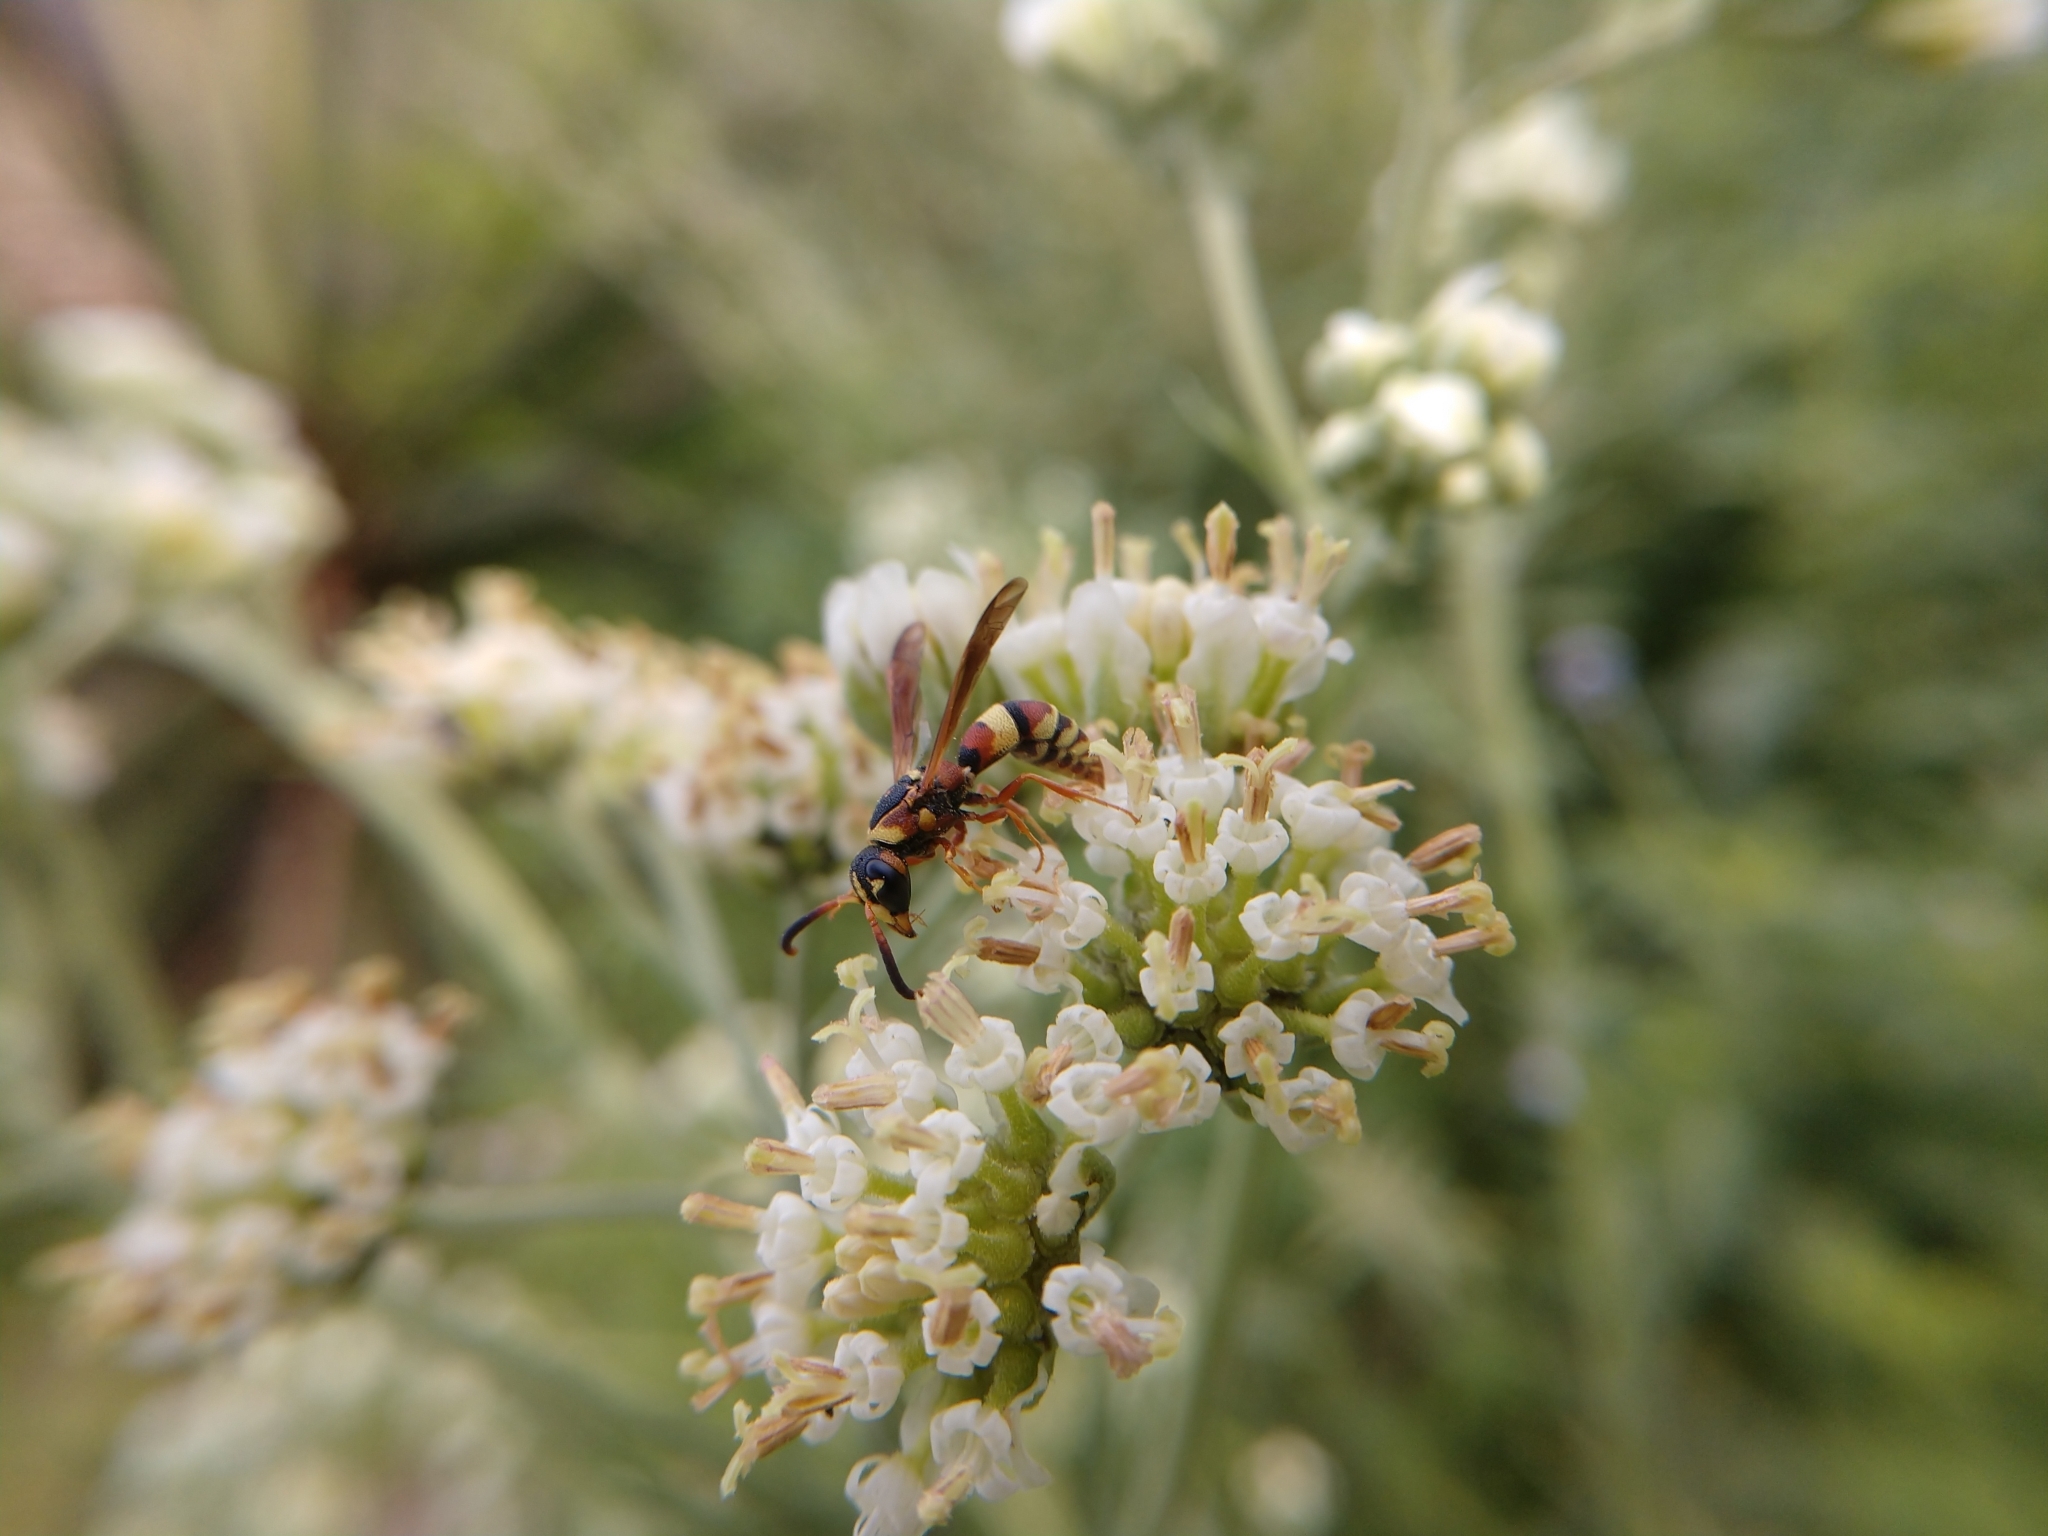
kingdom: Animalia
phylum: Arthropoda
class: Insecta
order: Hymenoptera
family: Eumenidae
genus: Dolichodynerus
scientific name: Dolichodynerus tanynotus
